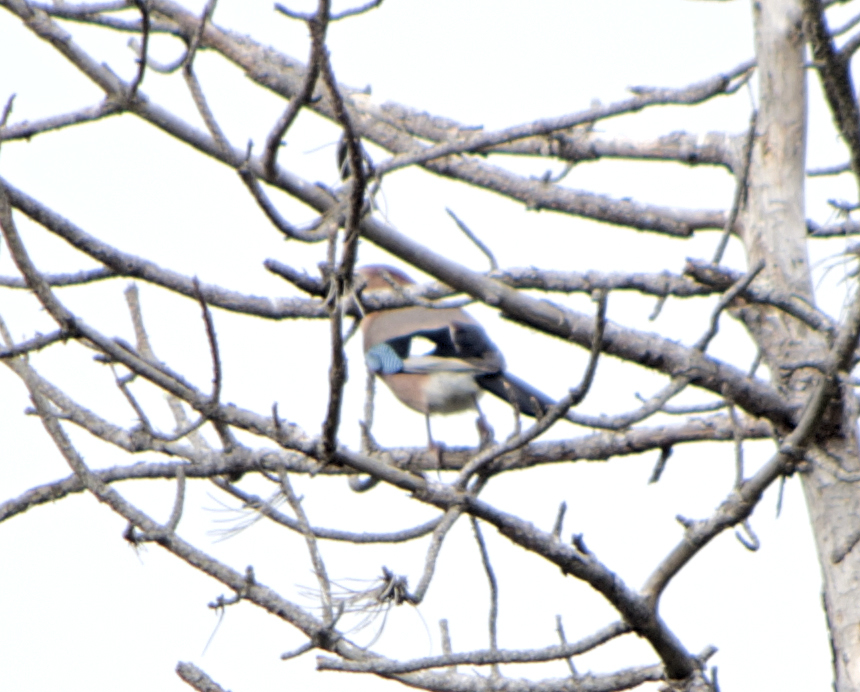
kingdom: Animalia
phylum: Chordata
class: Aves
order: Passeriformes
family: Corvidae
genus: Garrulus
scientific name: Garrulus glandarius
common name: Eurasian jay
